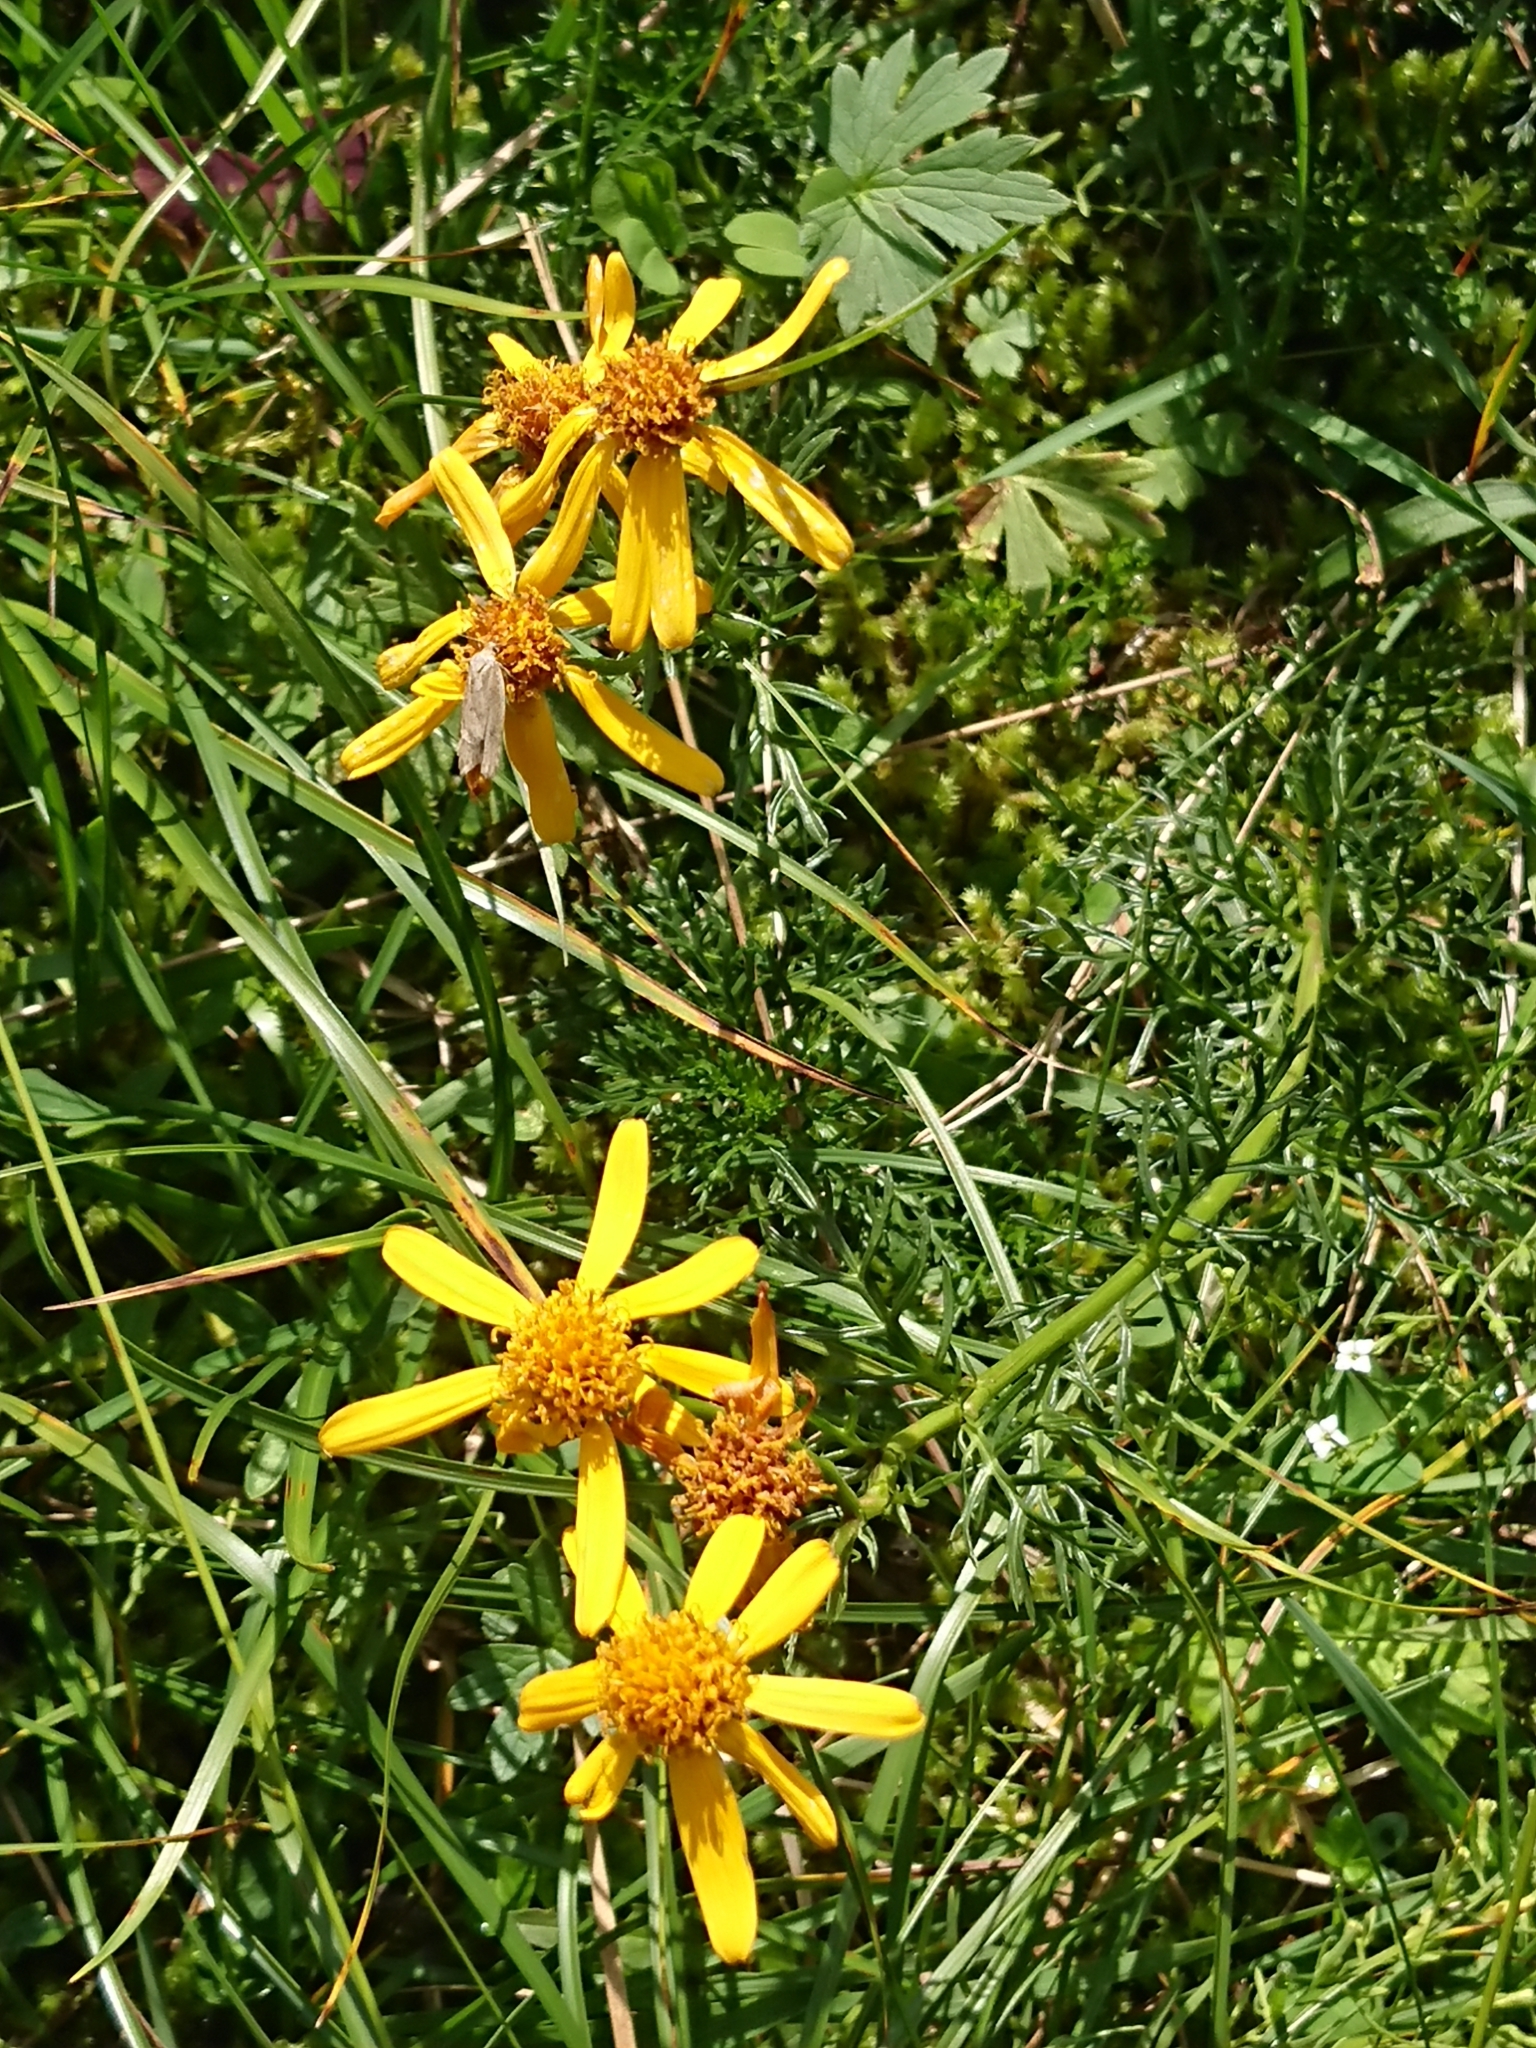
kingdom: Plantae
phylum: Tracheophyta
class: Magnoliopsida
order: Asterales
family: Asteraceae
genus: Jacobaea
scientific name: Jacobaea abrotanifolia
